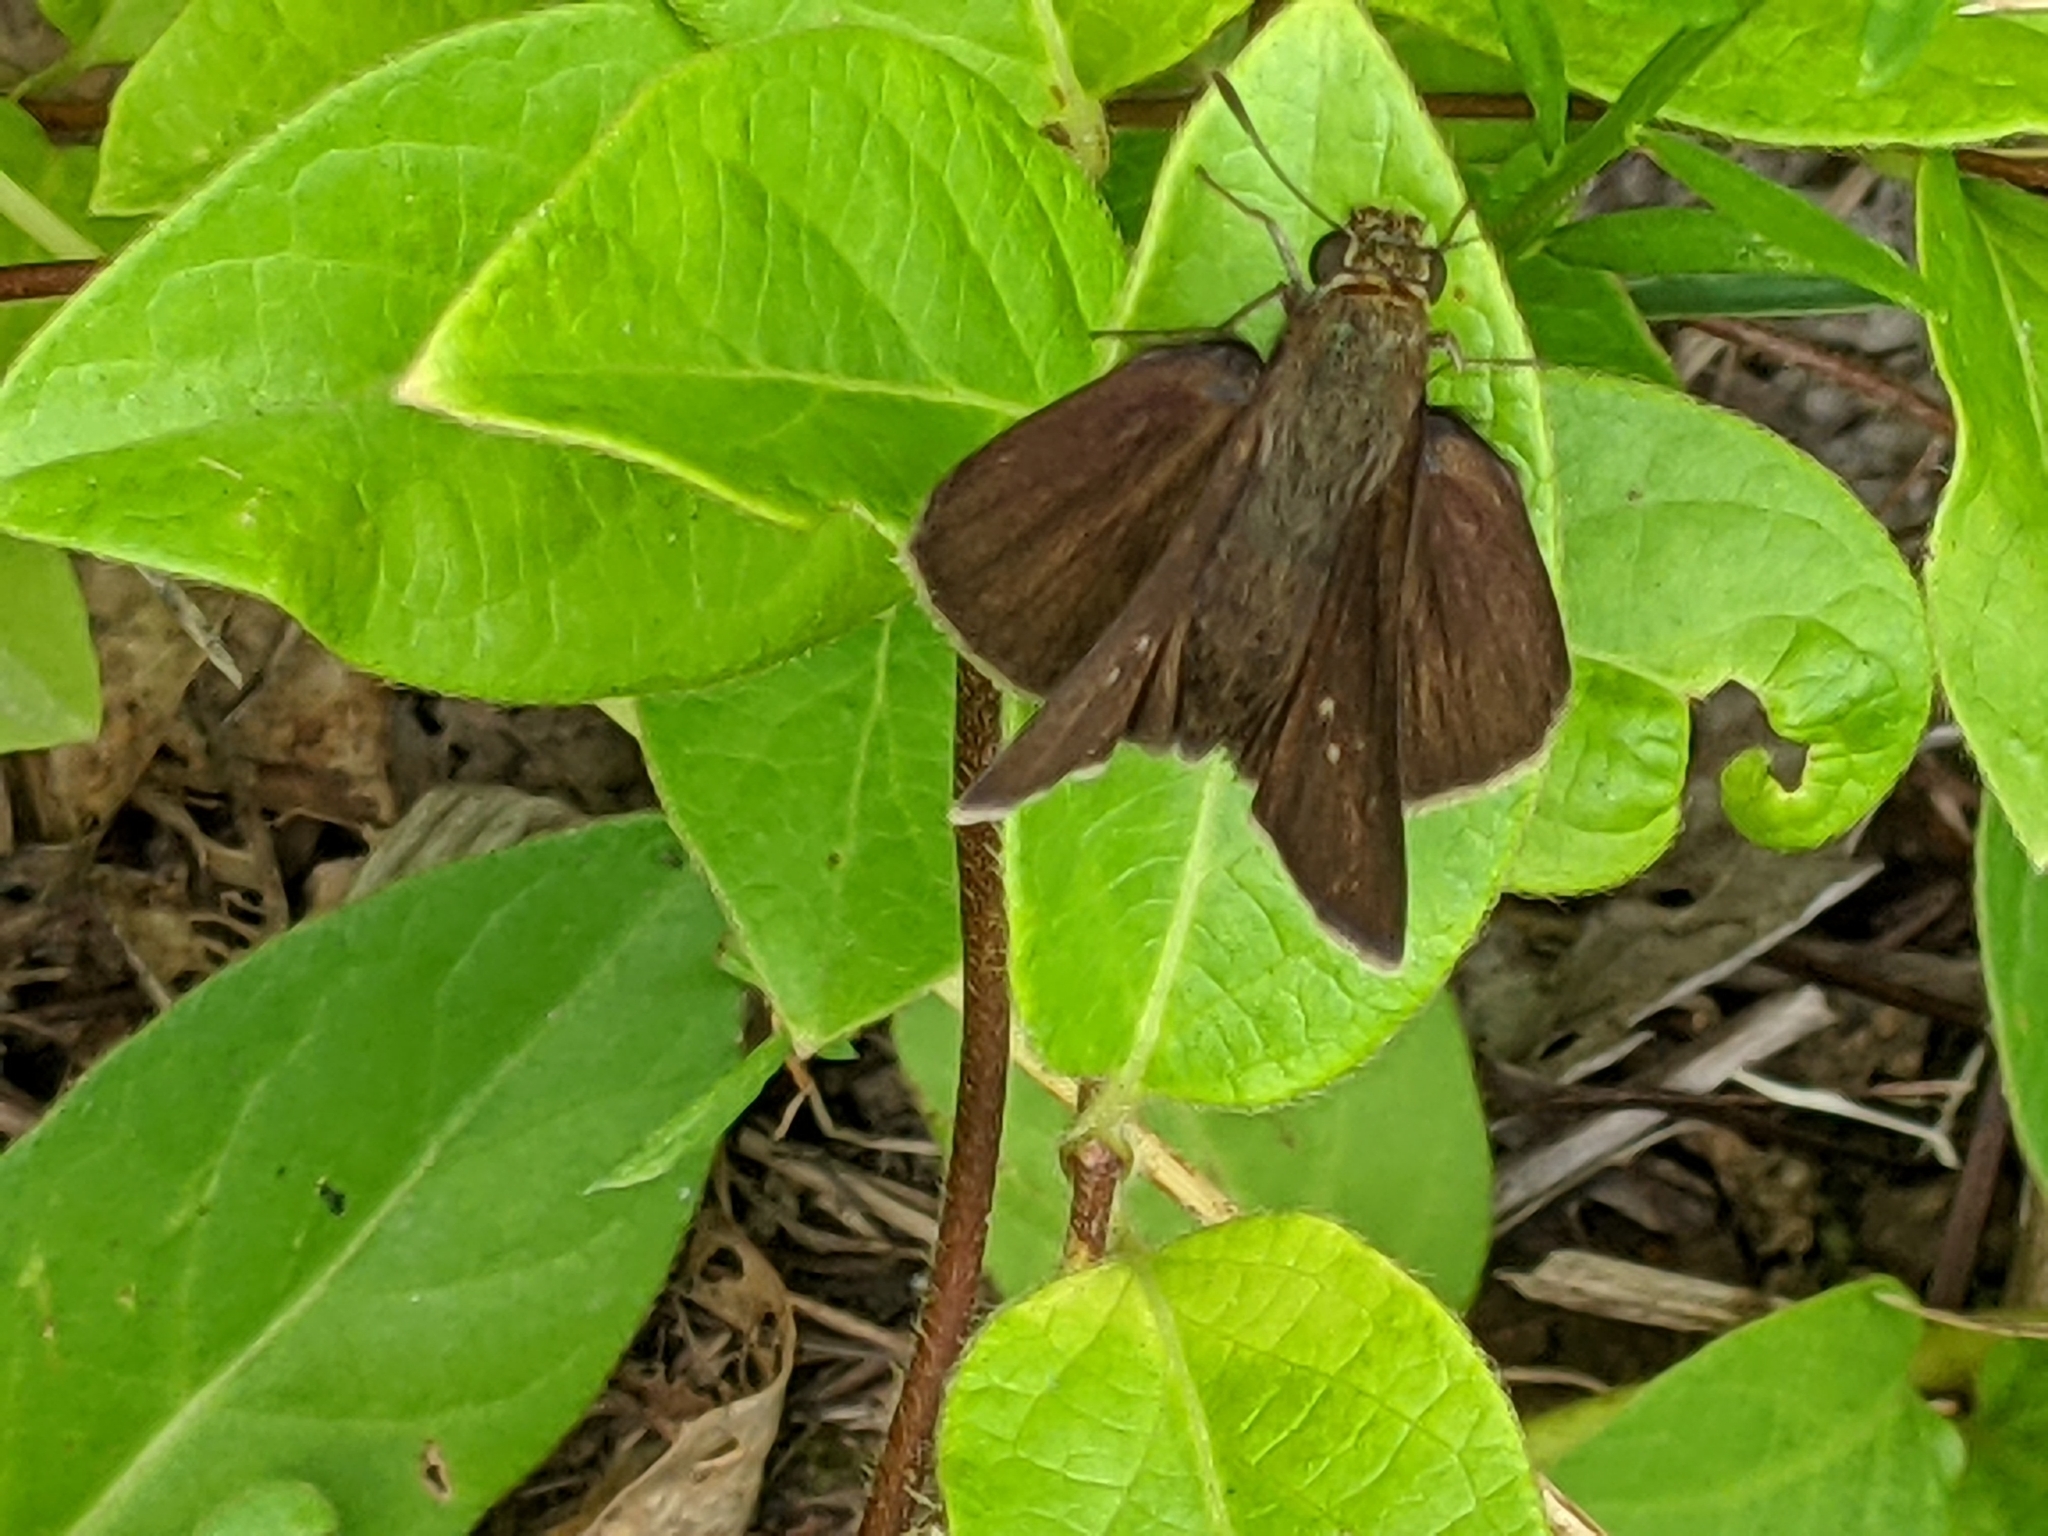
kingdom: Animalia
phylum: Arthropoda
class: Insecta
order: Lepidoptera
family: Hesperiidae
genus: Euphyes
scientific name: Euphyes vestris
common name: Dun skipper
